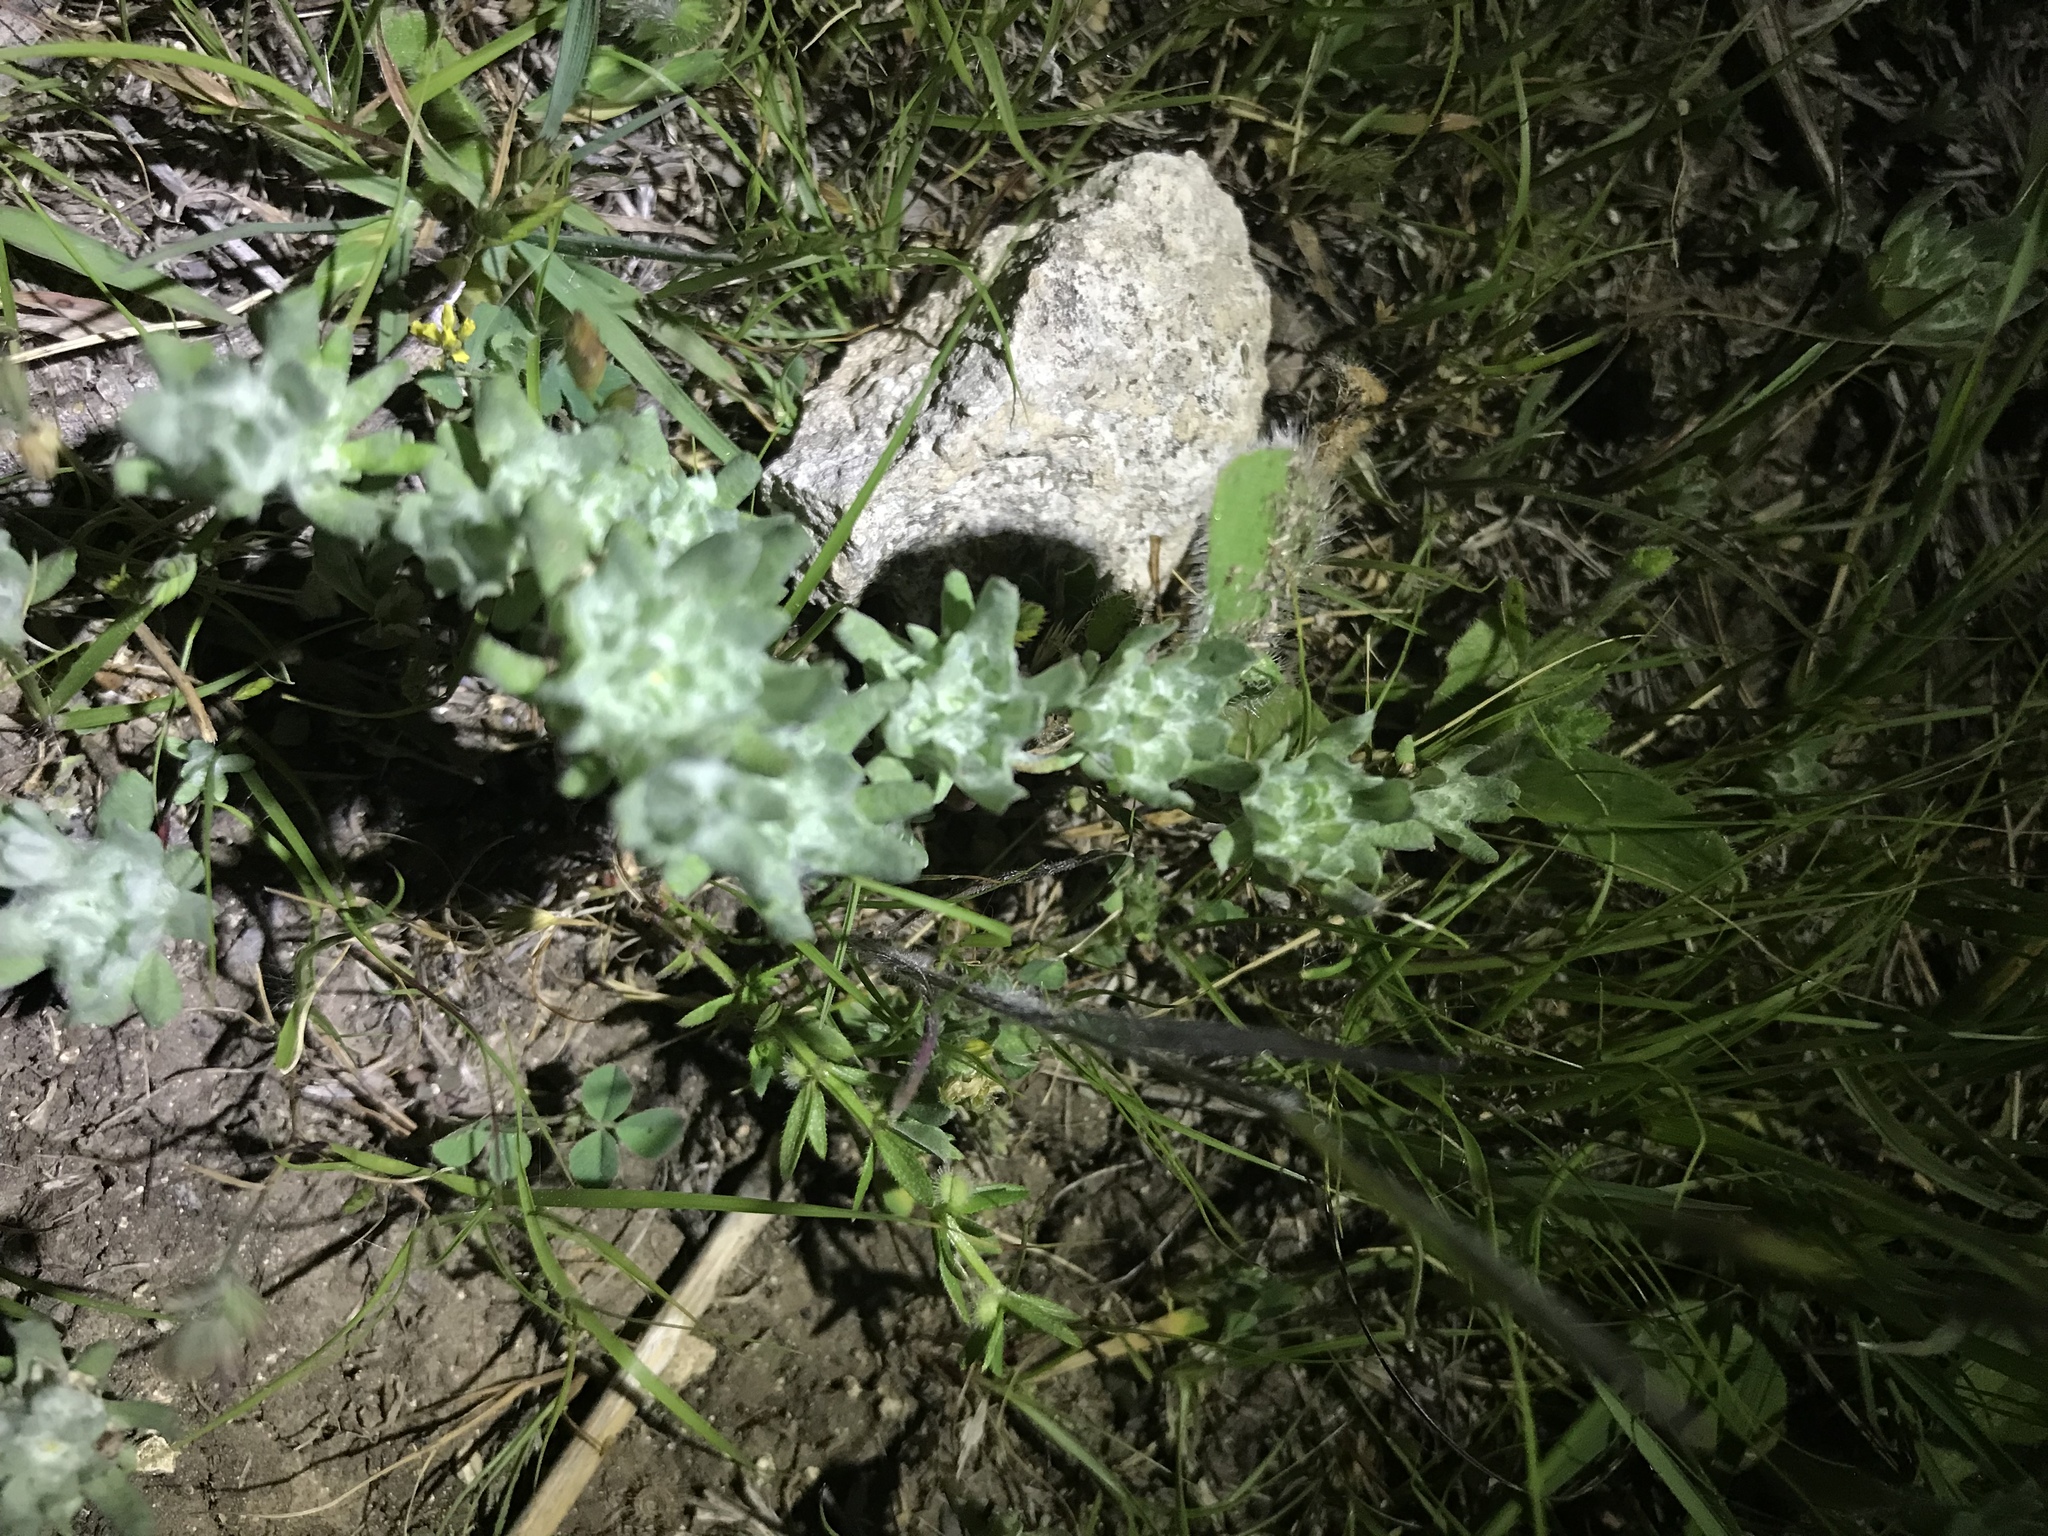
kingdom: Plantae
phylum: Tracheophyta
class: Magnoliopsida
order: Asterales
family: Asteraceae
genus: Diaperia
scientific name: Diaperia prolifera
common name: Big-head rabbit-tobacco
